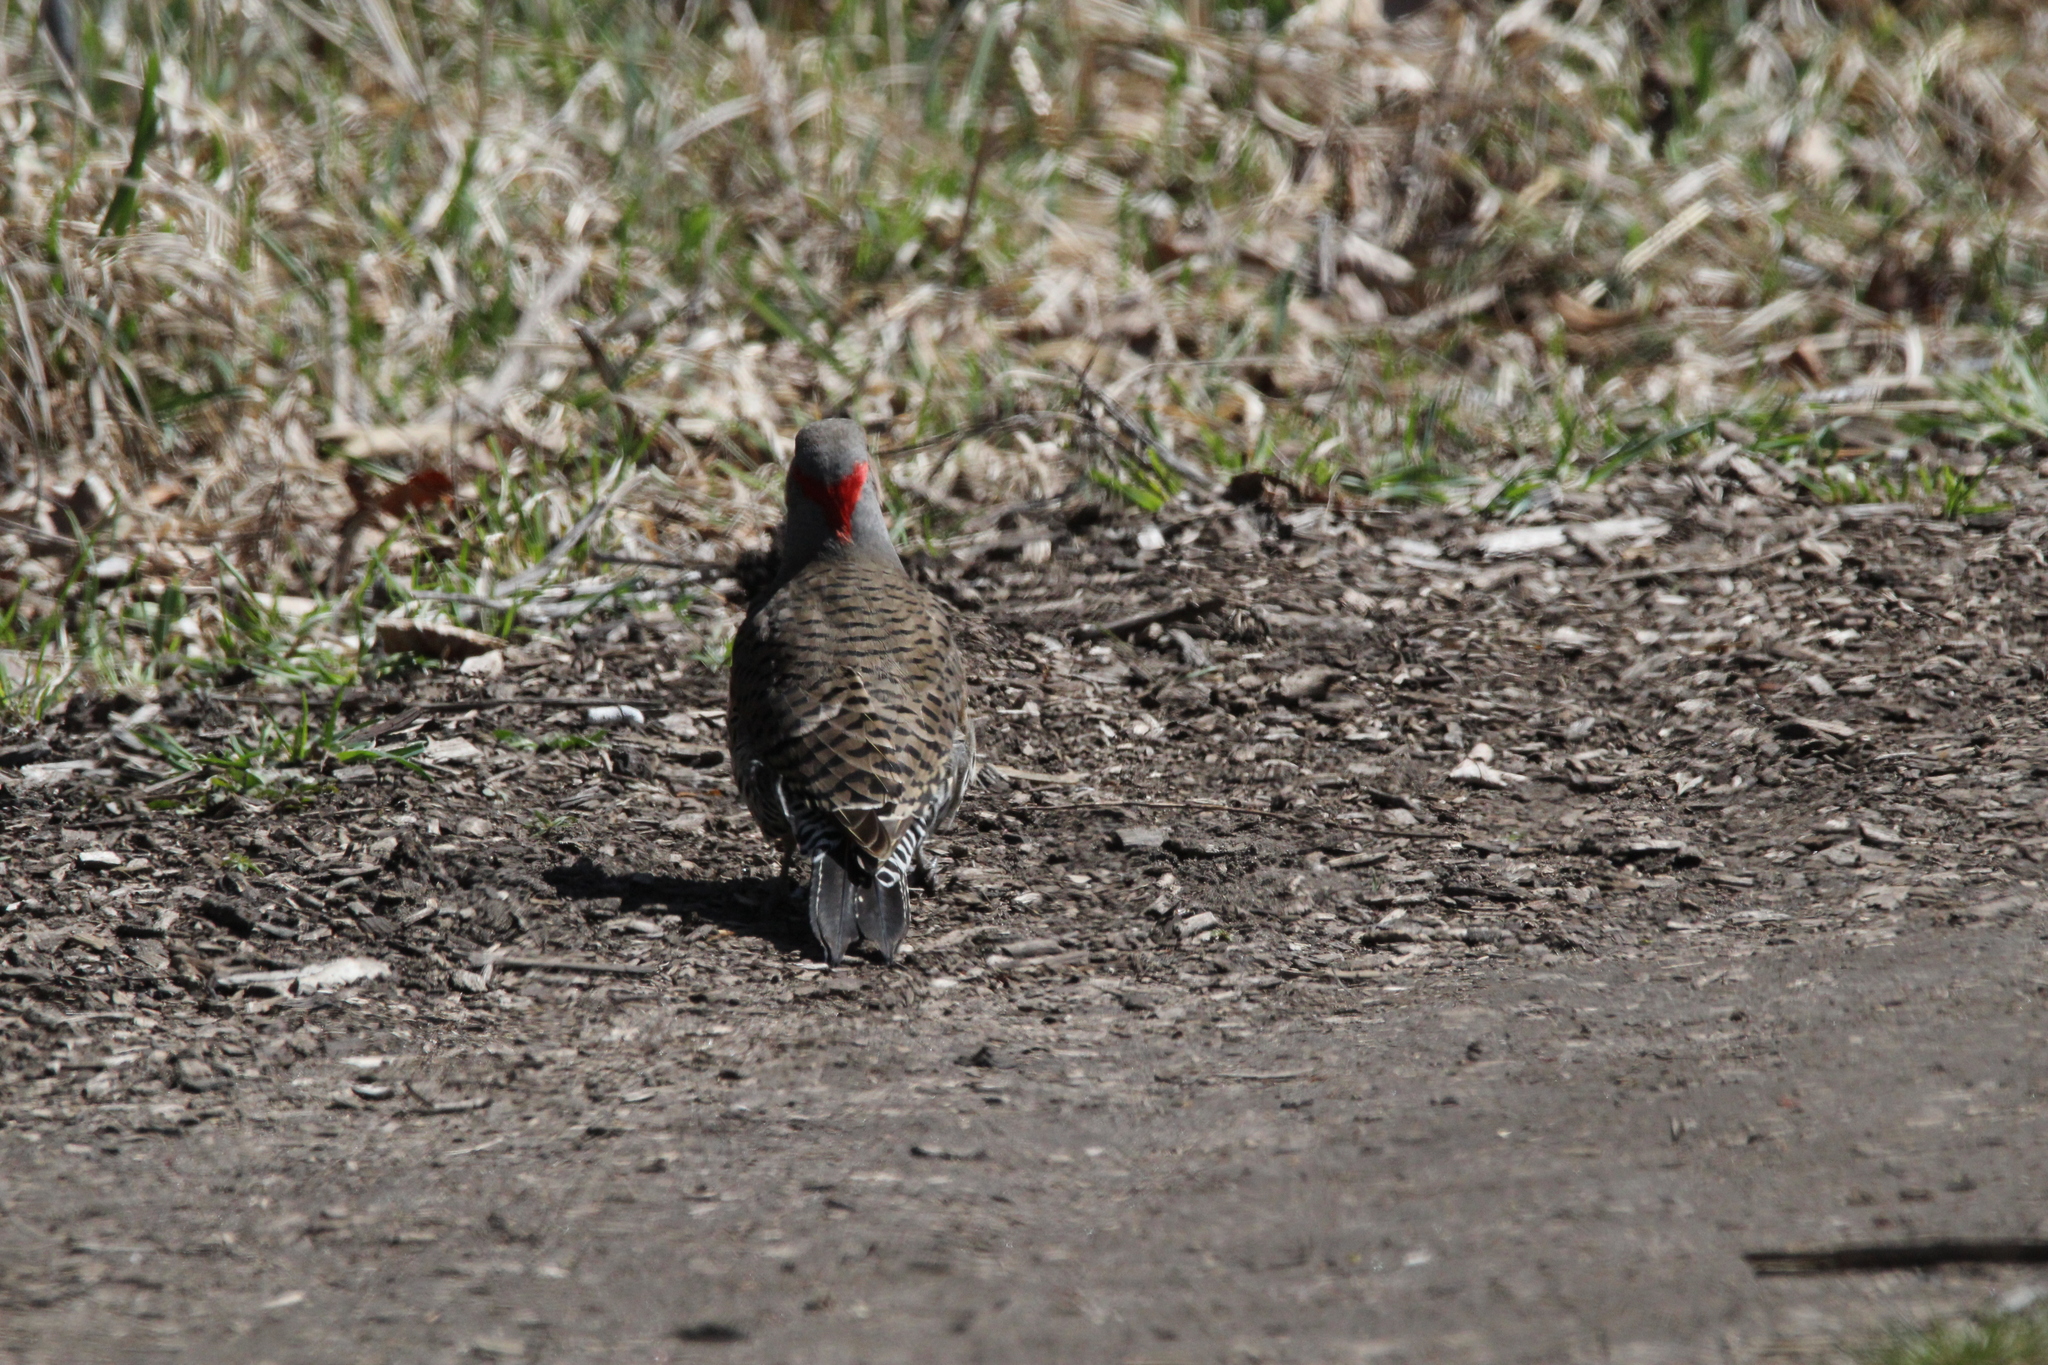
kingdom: Animalia
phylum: Chordata
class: Aves
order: Piciformes
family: Picidae
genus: Colaptes
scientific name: Colaptes auratus
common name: Northern flicker
